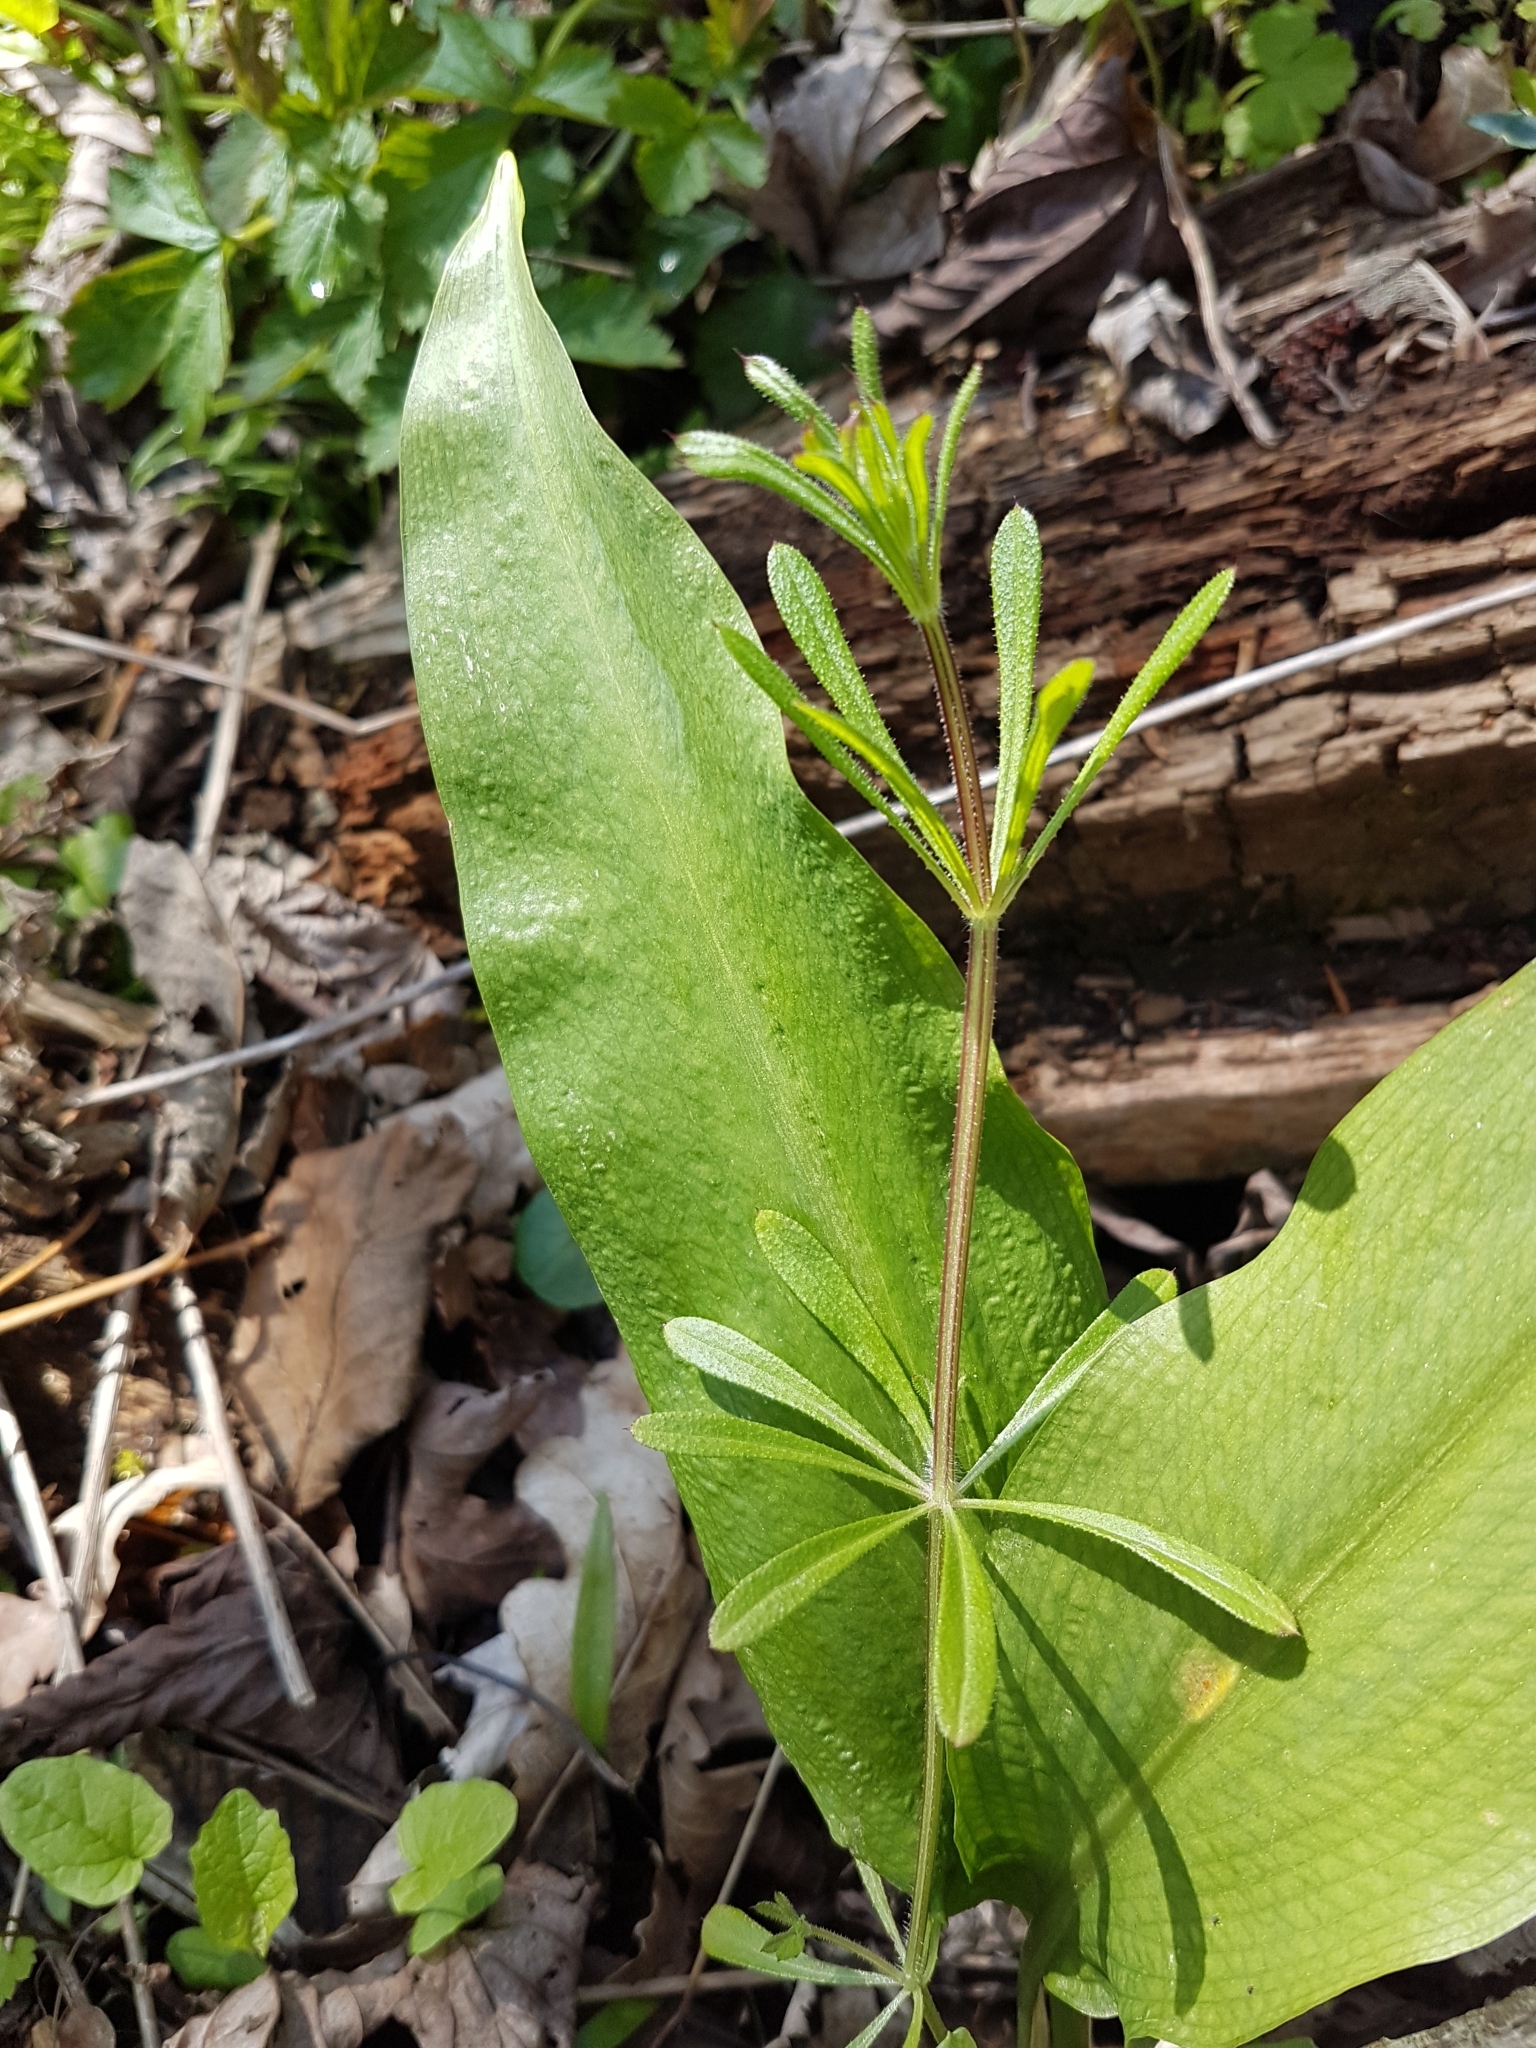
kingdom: Plantae
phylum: Tracheophyta
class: Magnoliopsida
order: Gentianales
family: Rubiaceae
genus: Galium
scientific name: Galium aparine
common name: Cleavers
